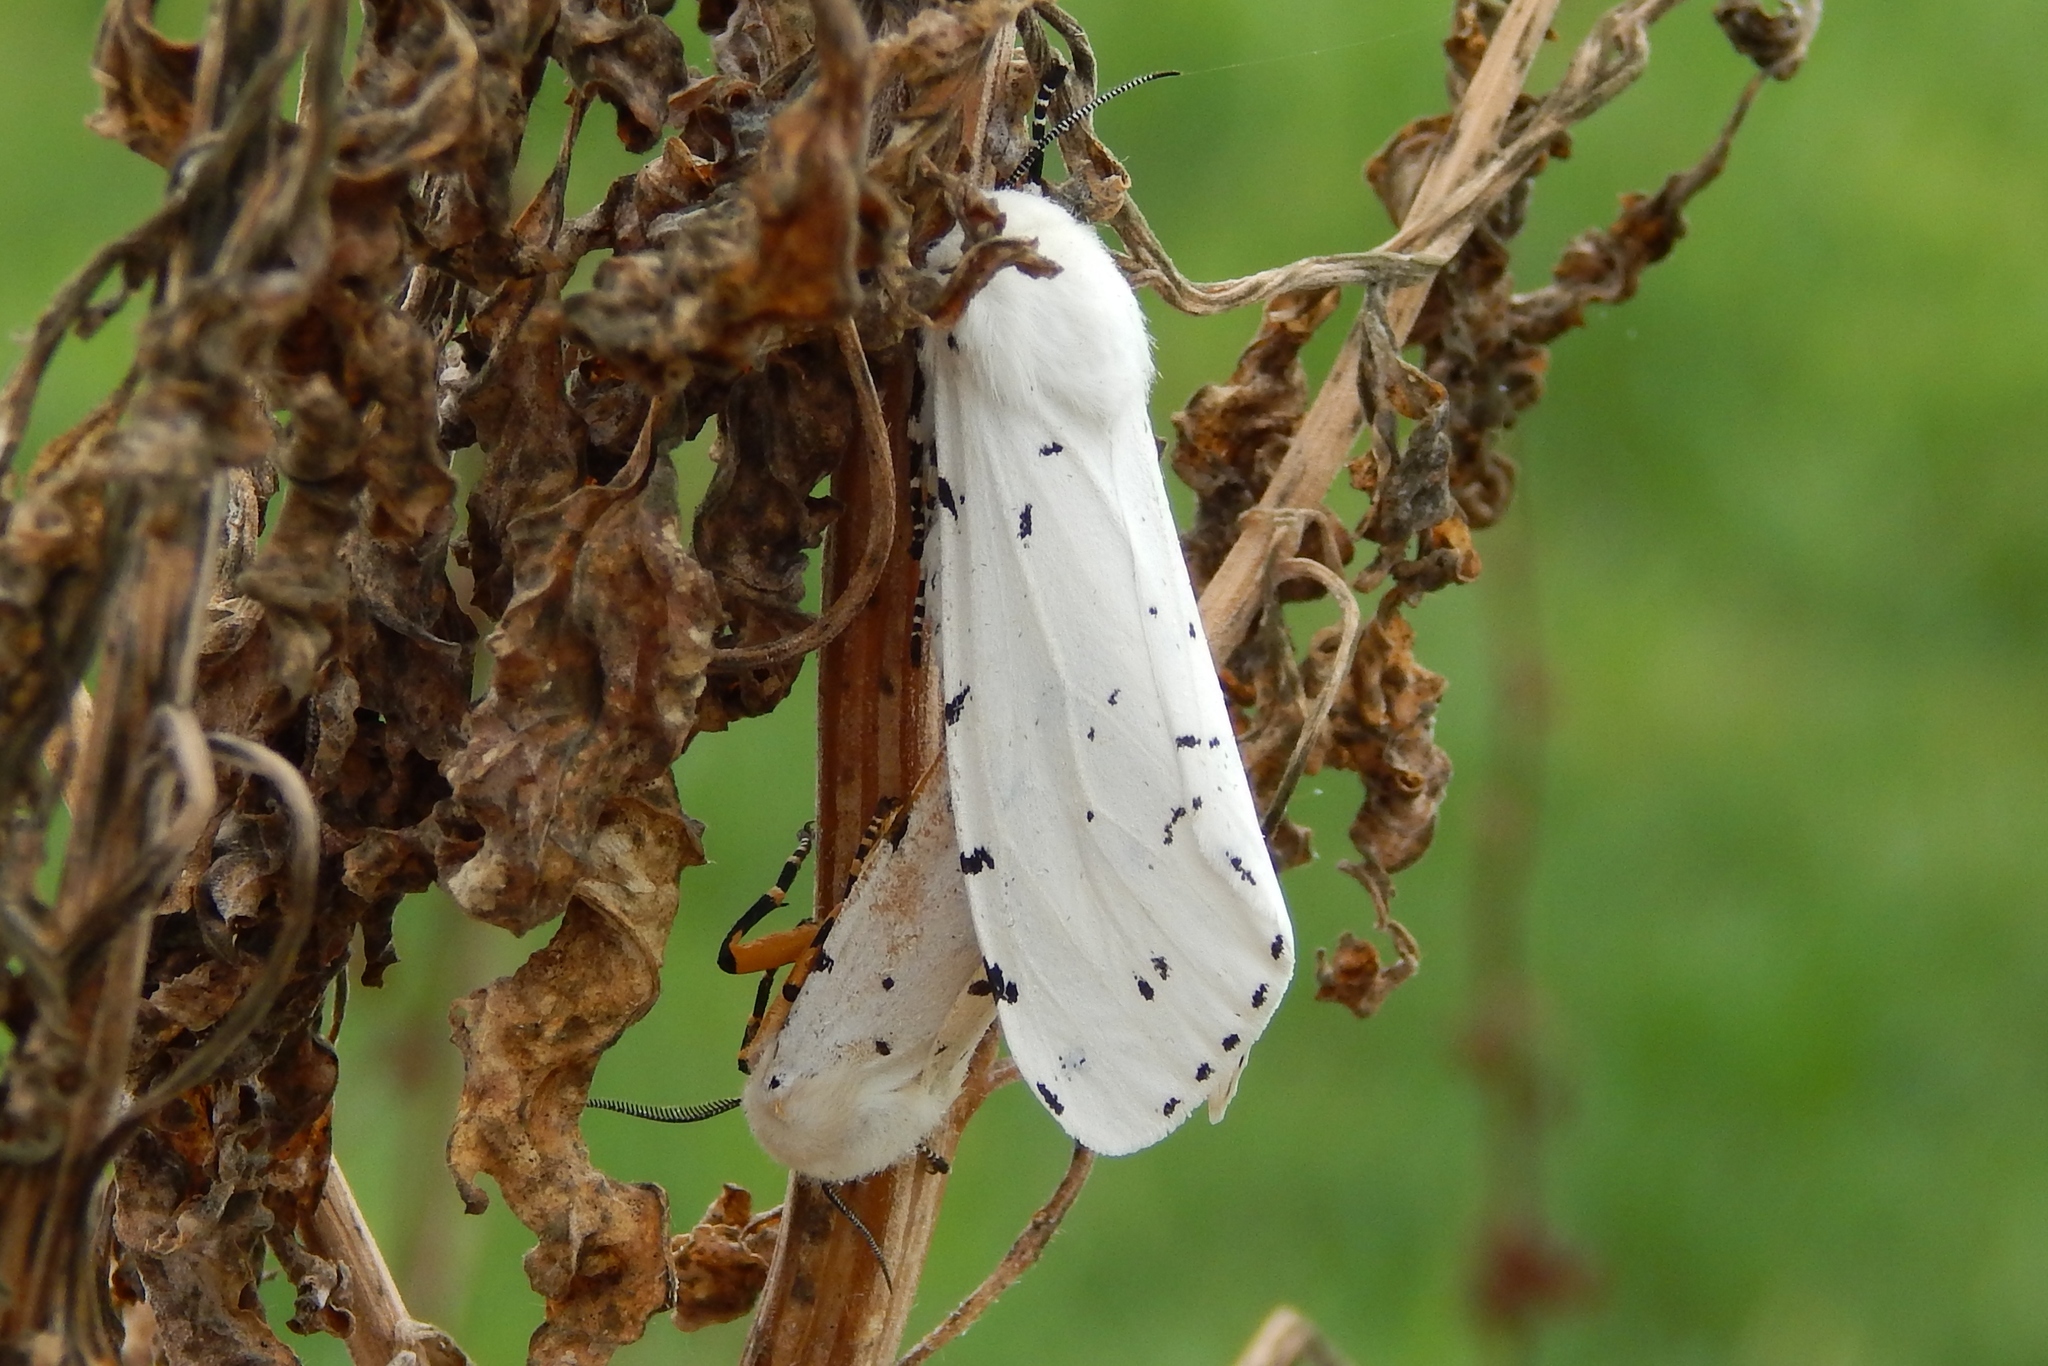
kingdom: Animalia
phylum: Arthropoda
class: Insecta
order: Lepidoptera
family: Erebidae
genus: Estigmene
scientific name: Estigmene acrea
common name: Salt marsh moth
